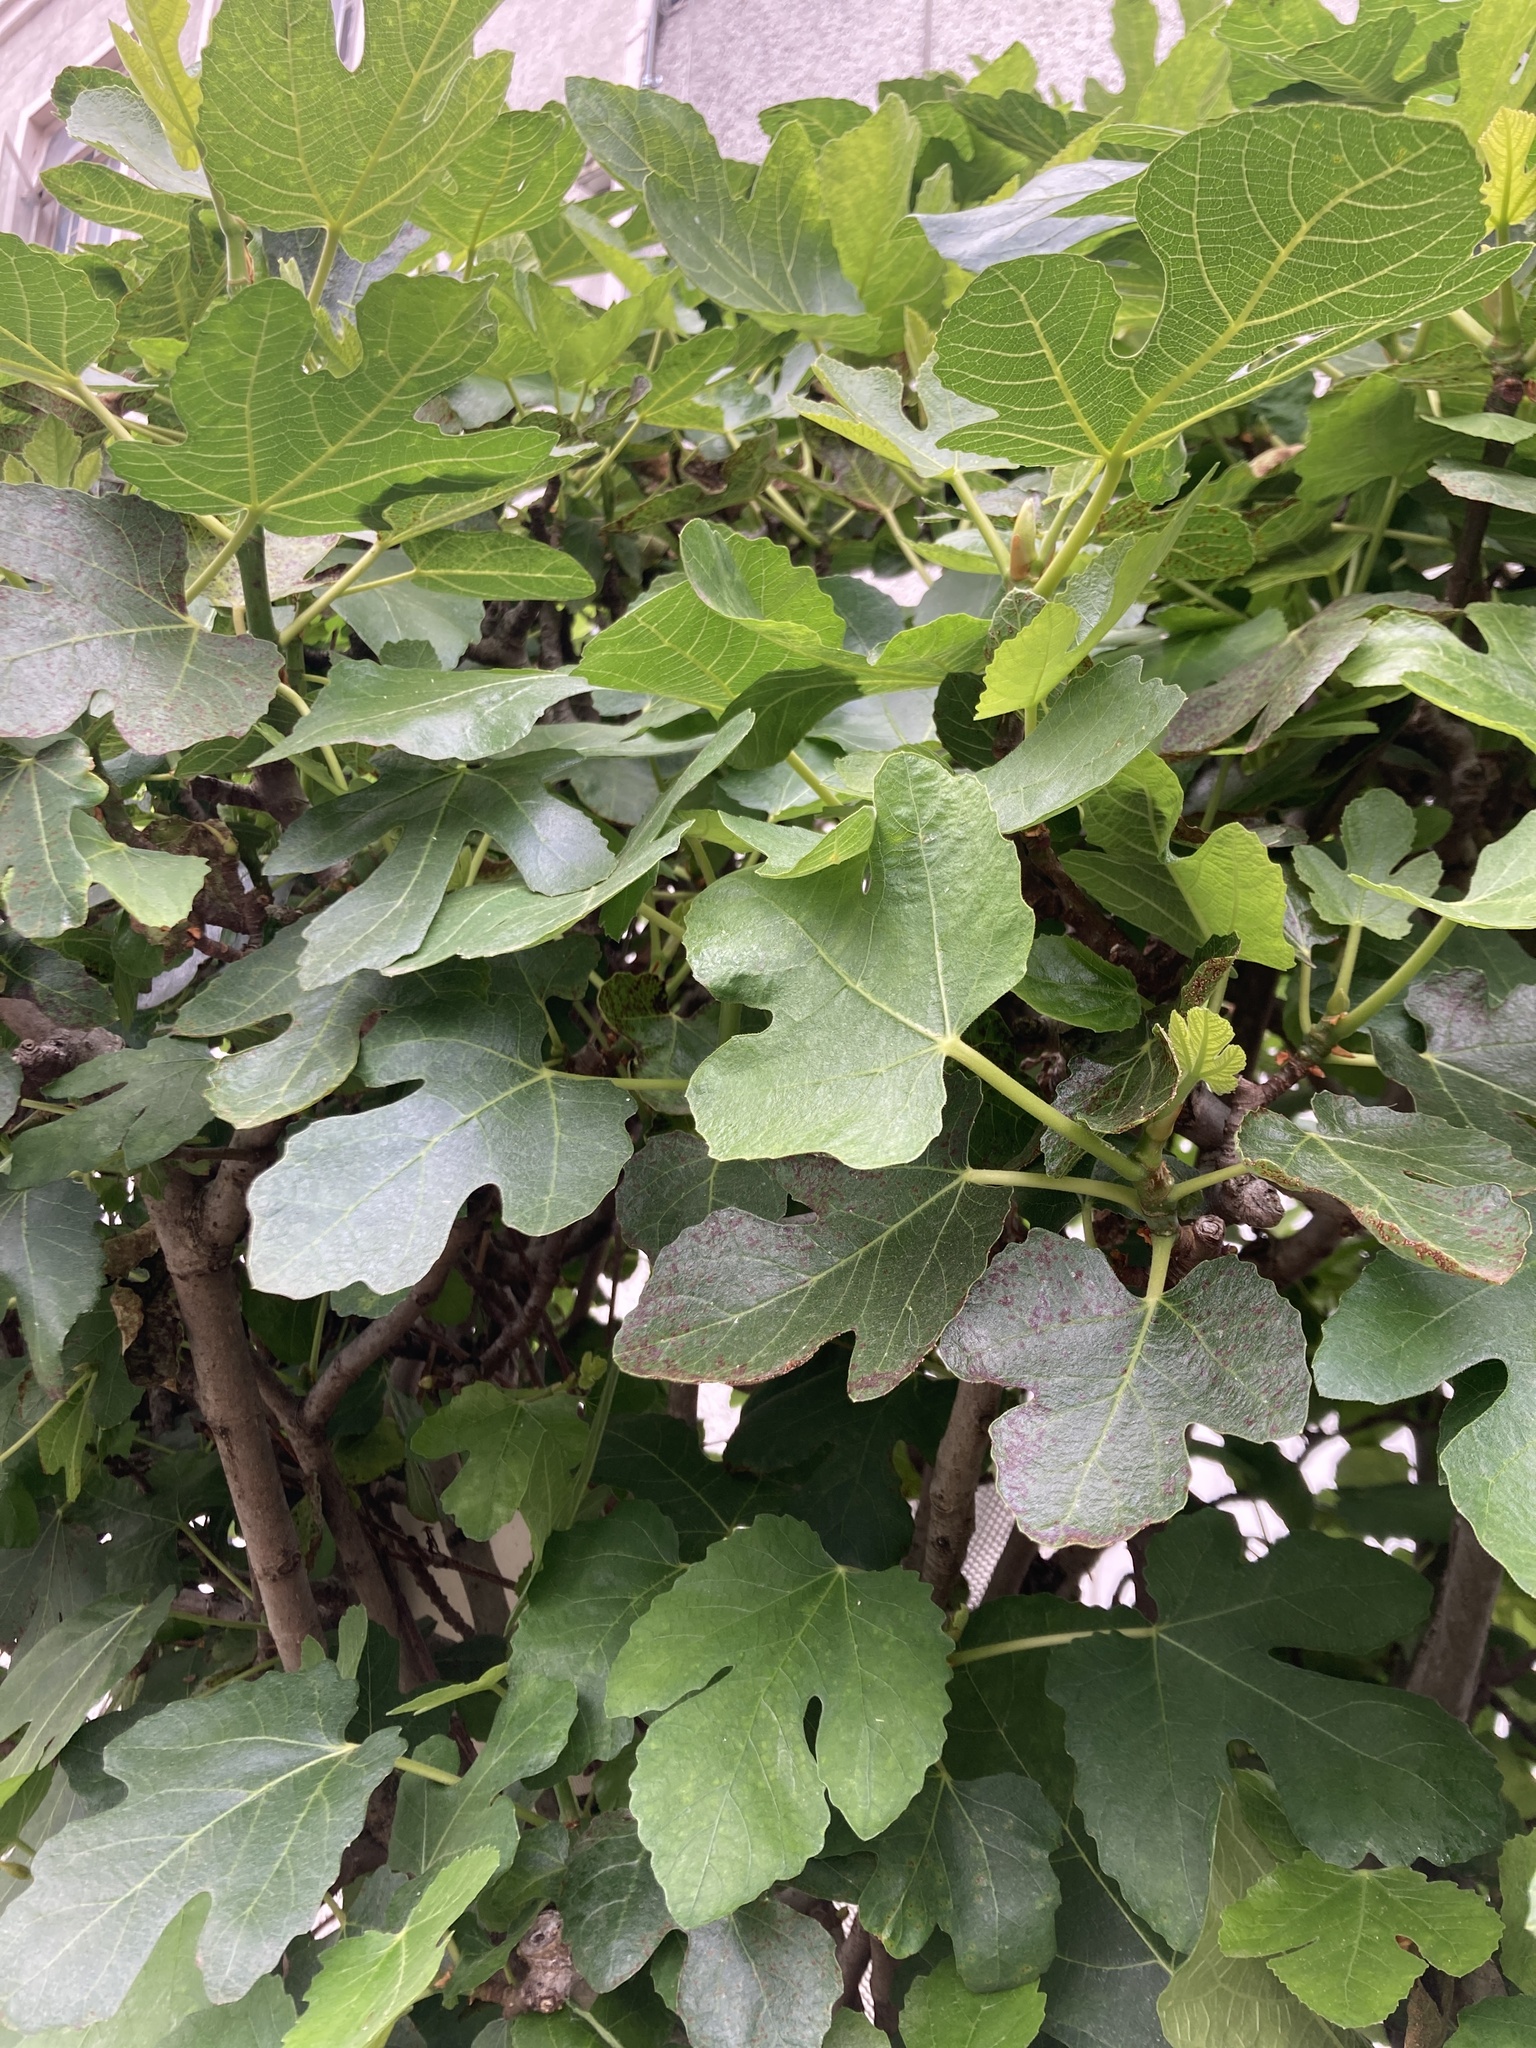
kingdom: Plantae
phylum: Tracheophyta
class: Magnoliopsida
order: Rosales
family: Moraceae
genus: Ficus
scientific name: Ficus carica
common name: Fig
